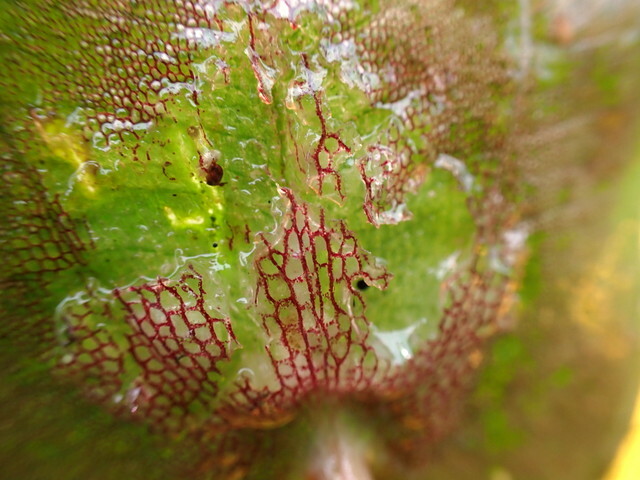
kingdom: Plantae
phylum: Tracheophyta
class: Liliopsida
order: Alismatales
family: Hydrocharitaceae
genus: Hydrocharis
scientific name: Hydrocharis spongia
